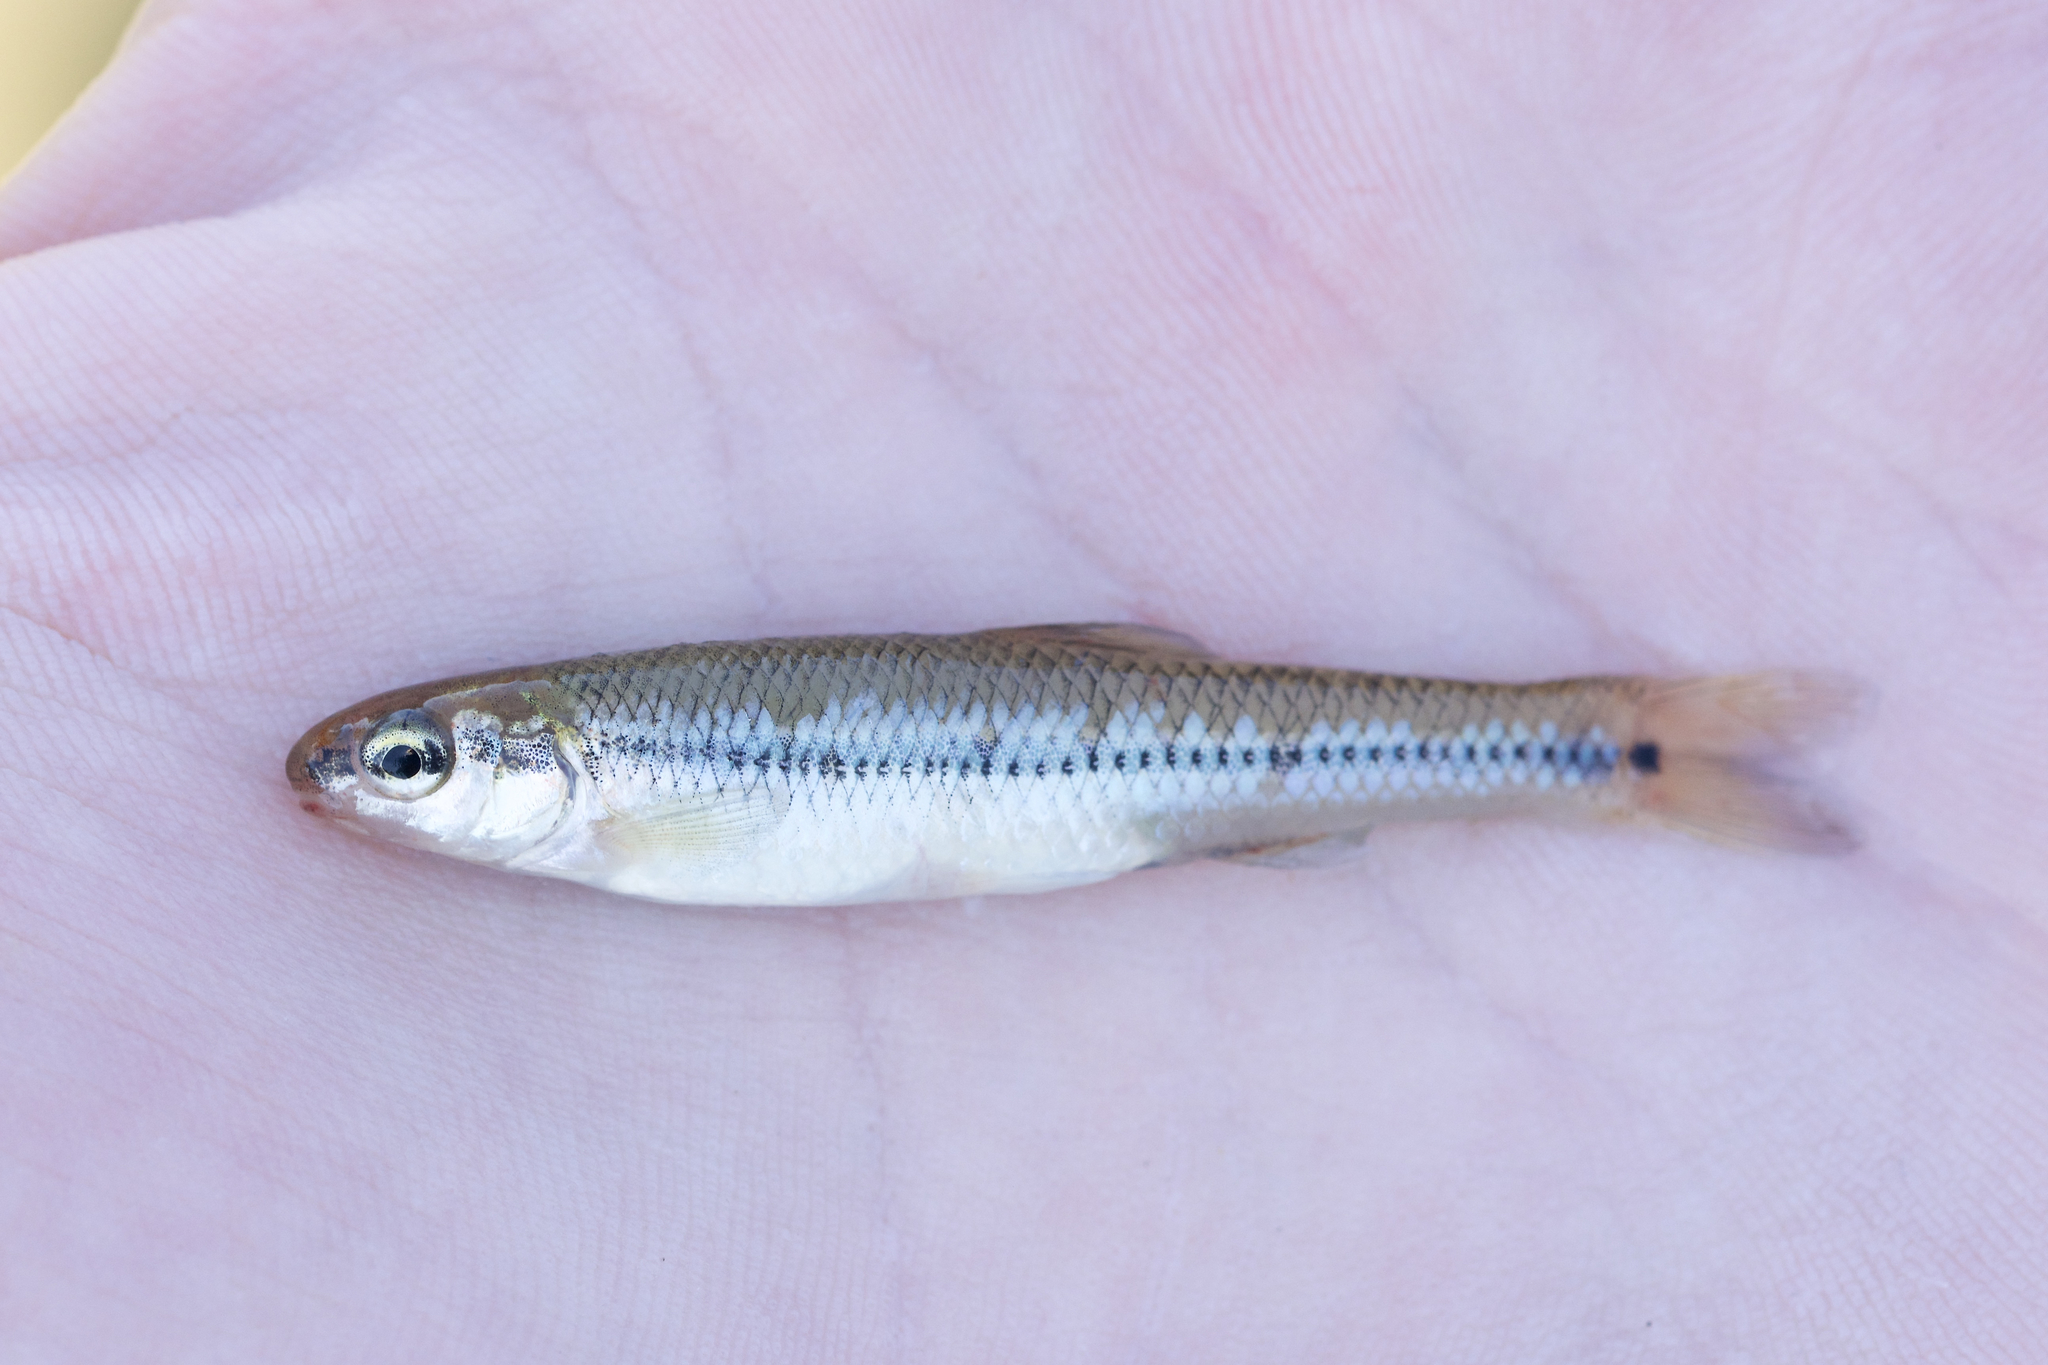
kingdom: Animalia
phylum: Chordata
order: Cypriniformes
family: Cyprinidae
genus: Pimephales
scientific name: Pimephales notatus
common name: Bluntnose minnow
